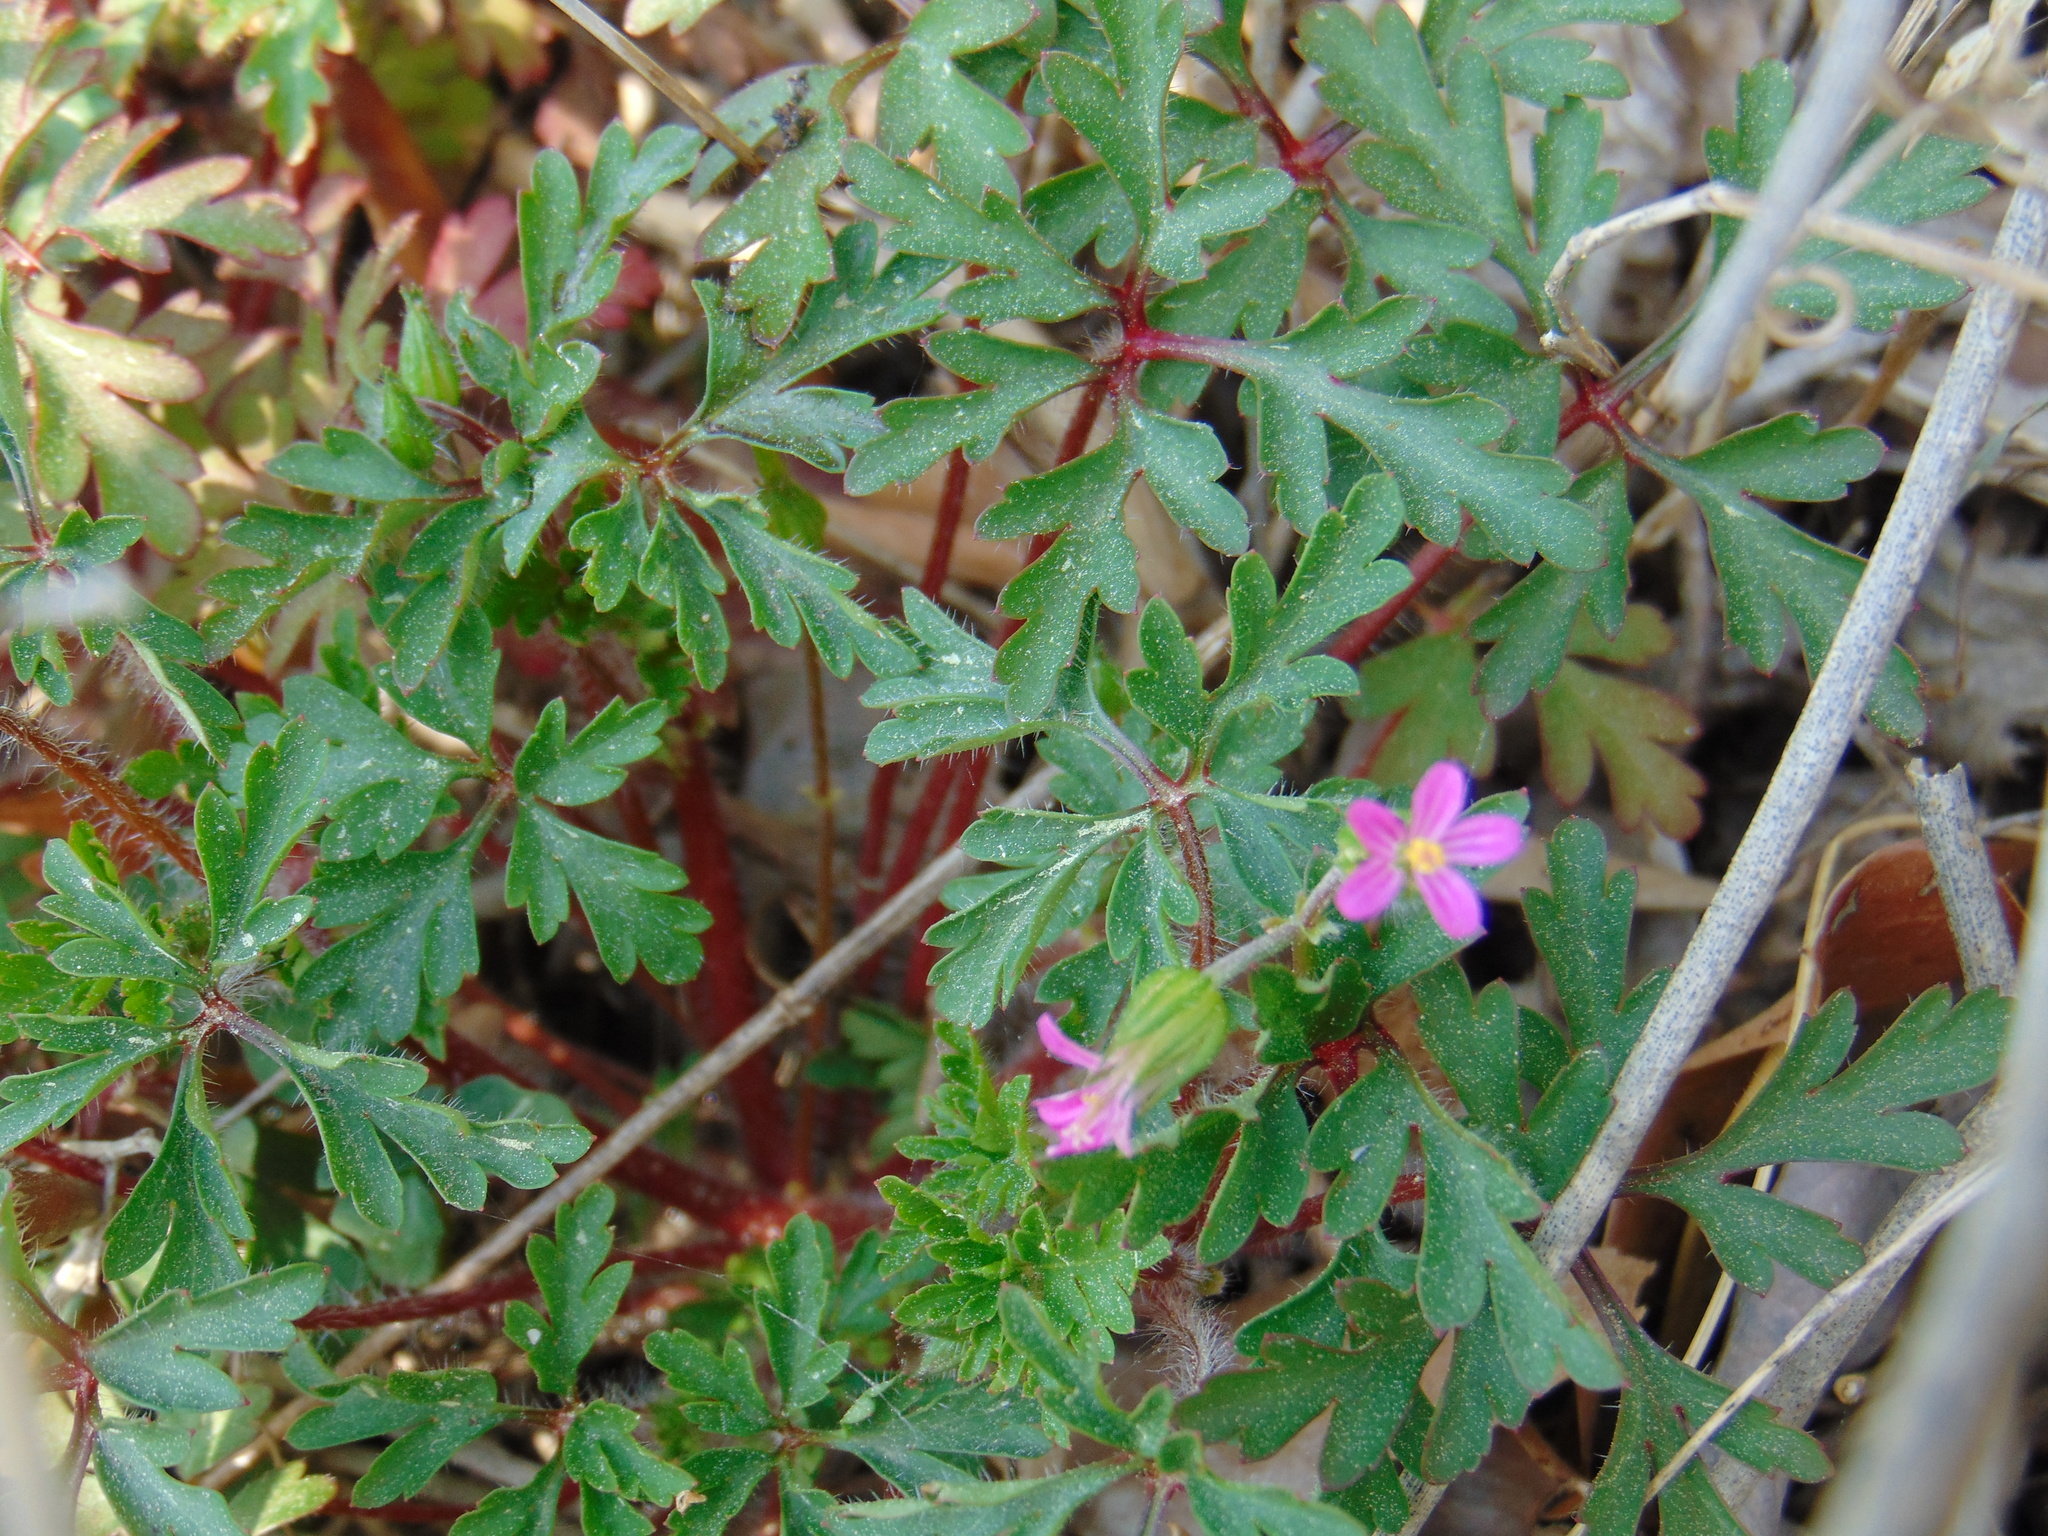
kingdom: Plantae
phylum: Tracheophyta
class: Magnoliopsida
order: Geraniales
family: Geraniaceae
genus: Geranium
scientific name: Geranium purpureum
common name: Little-robin
